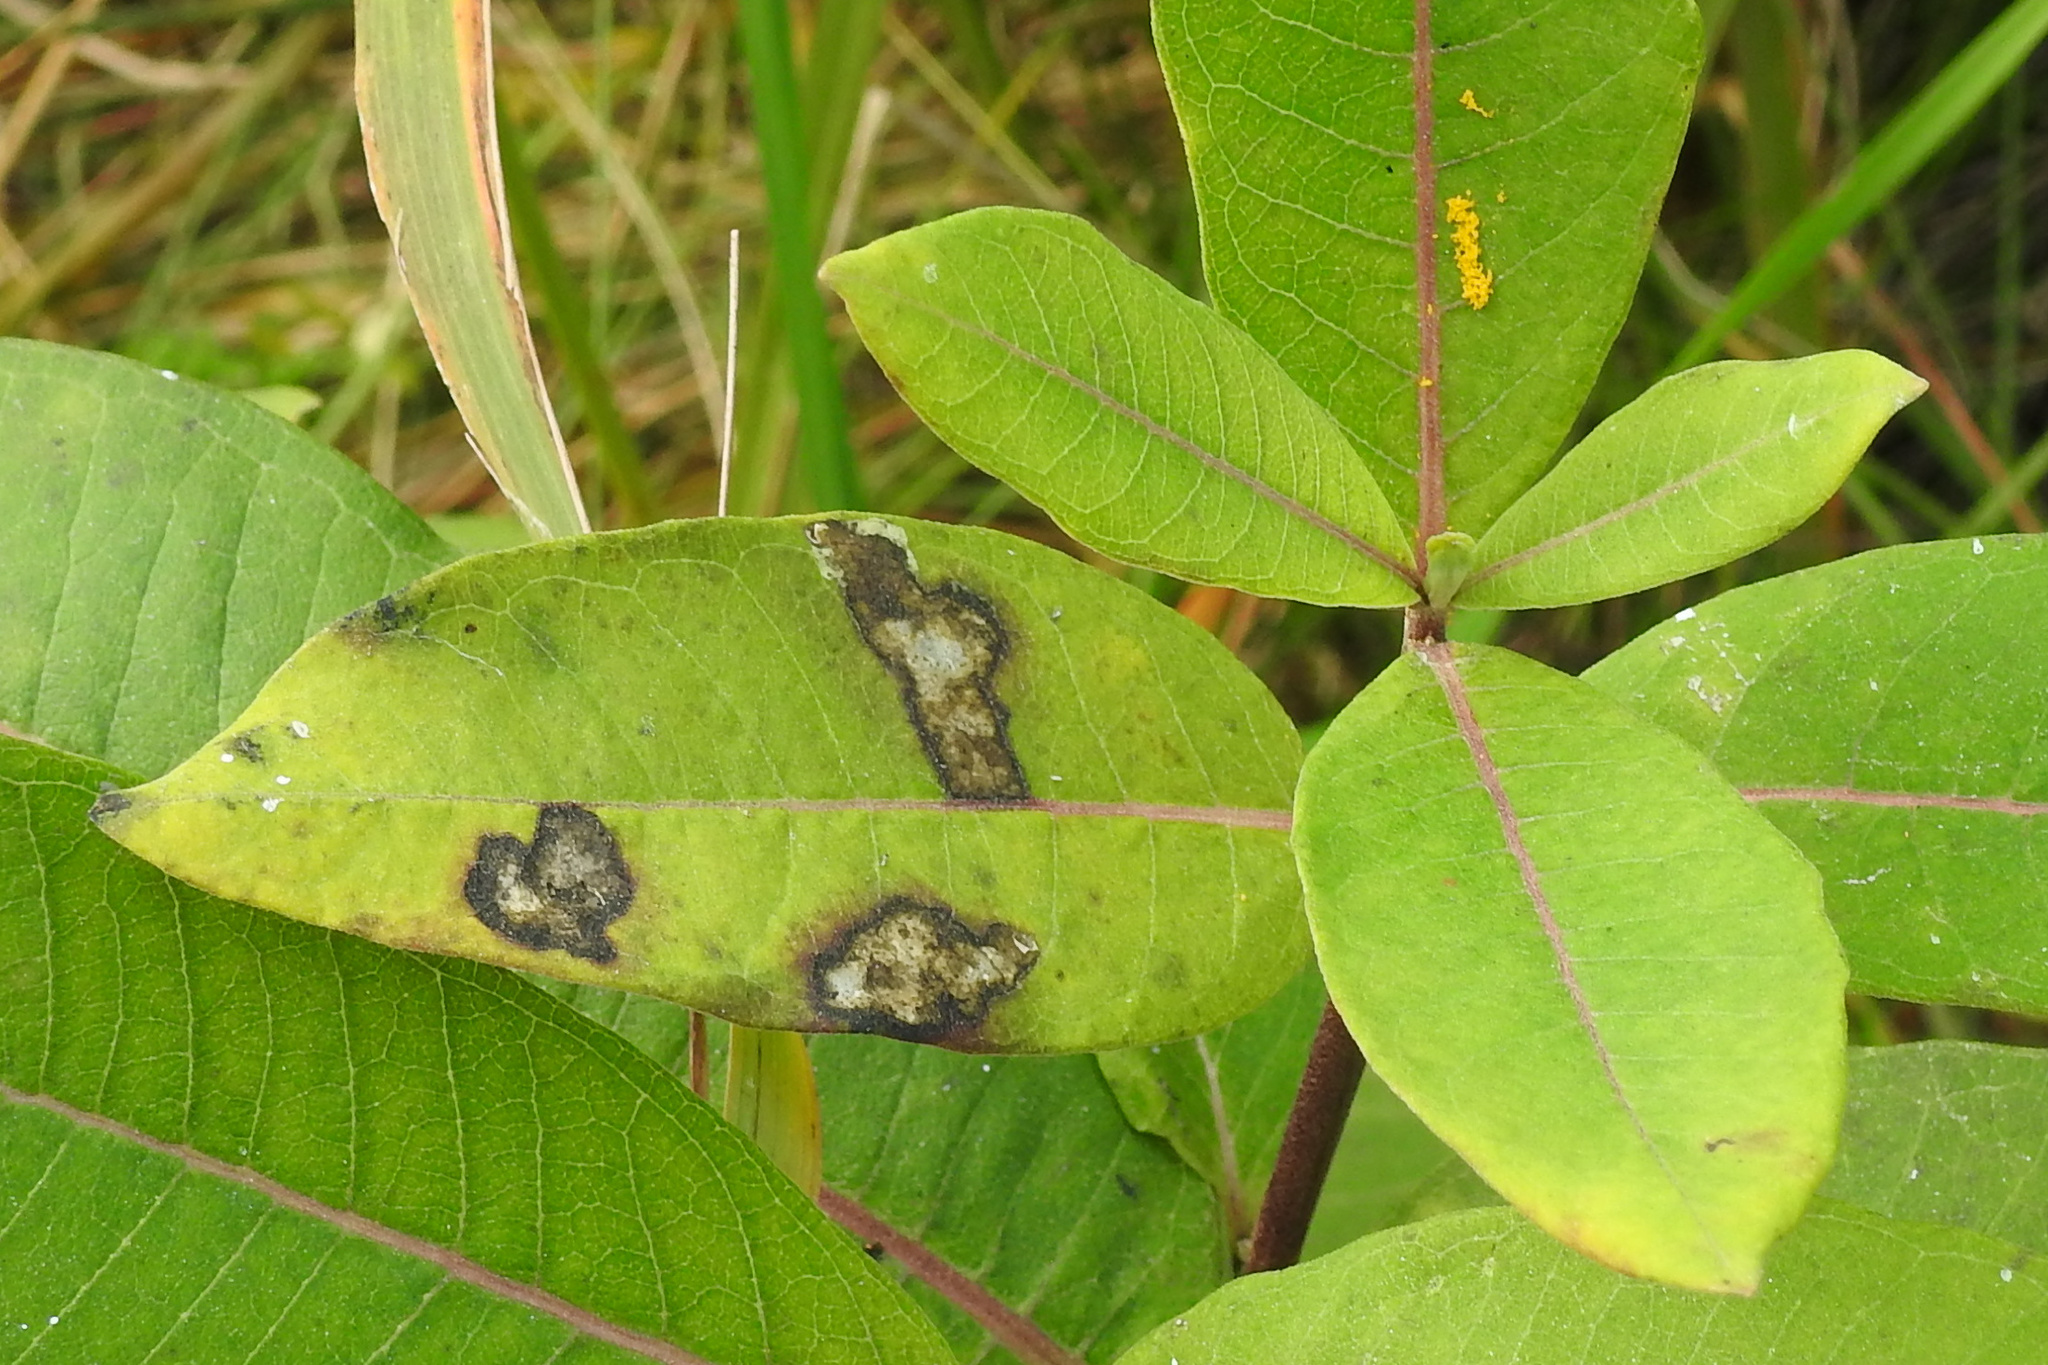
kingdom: Plantae
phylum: Tracheophyta
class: Magnoliopsida
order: Gentianales
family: Apocynaceae
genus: Asclepias
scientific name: Asclepias syriaca
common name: Common milkweed
